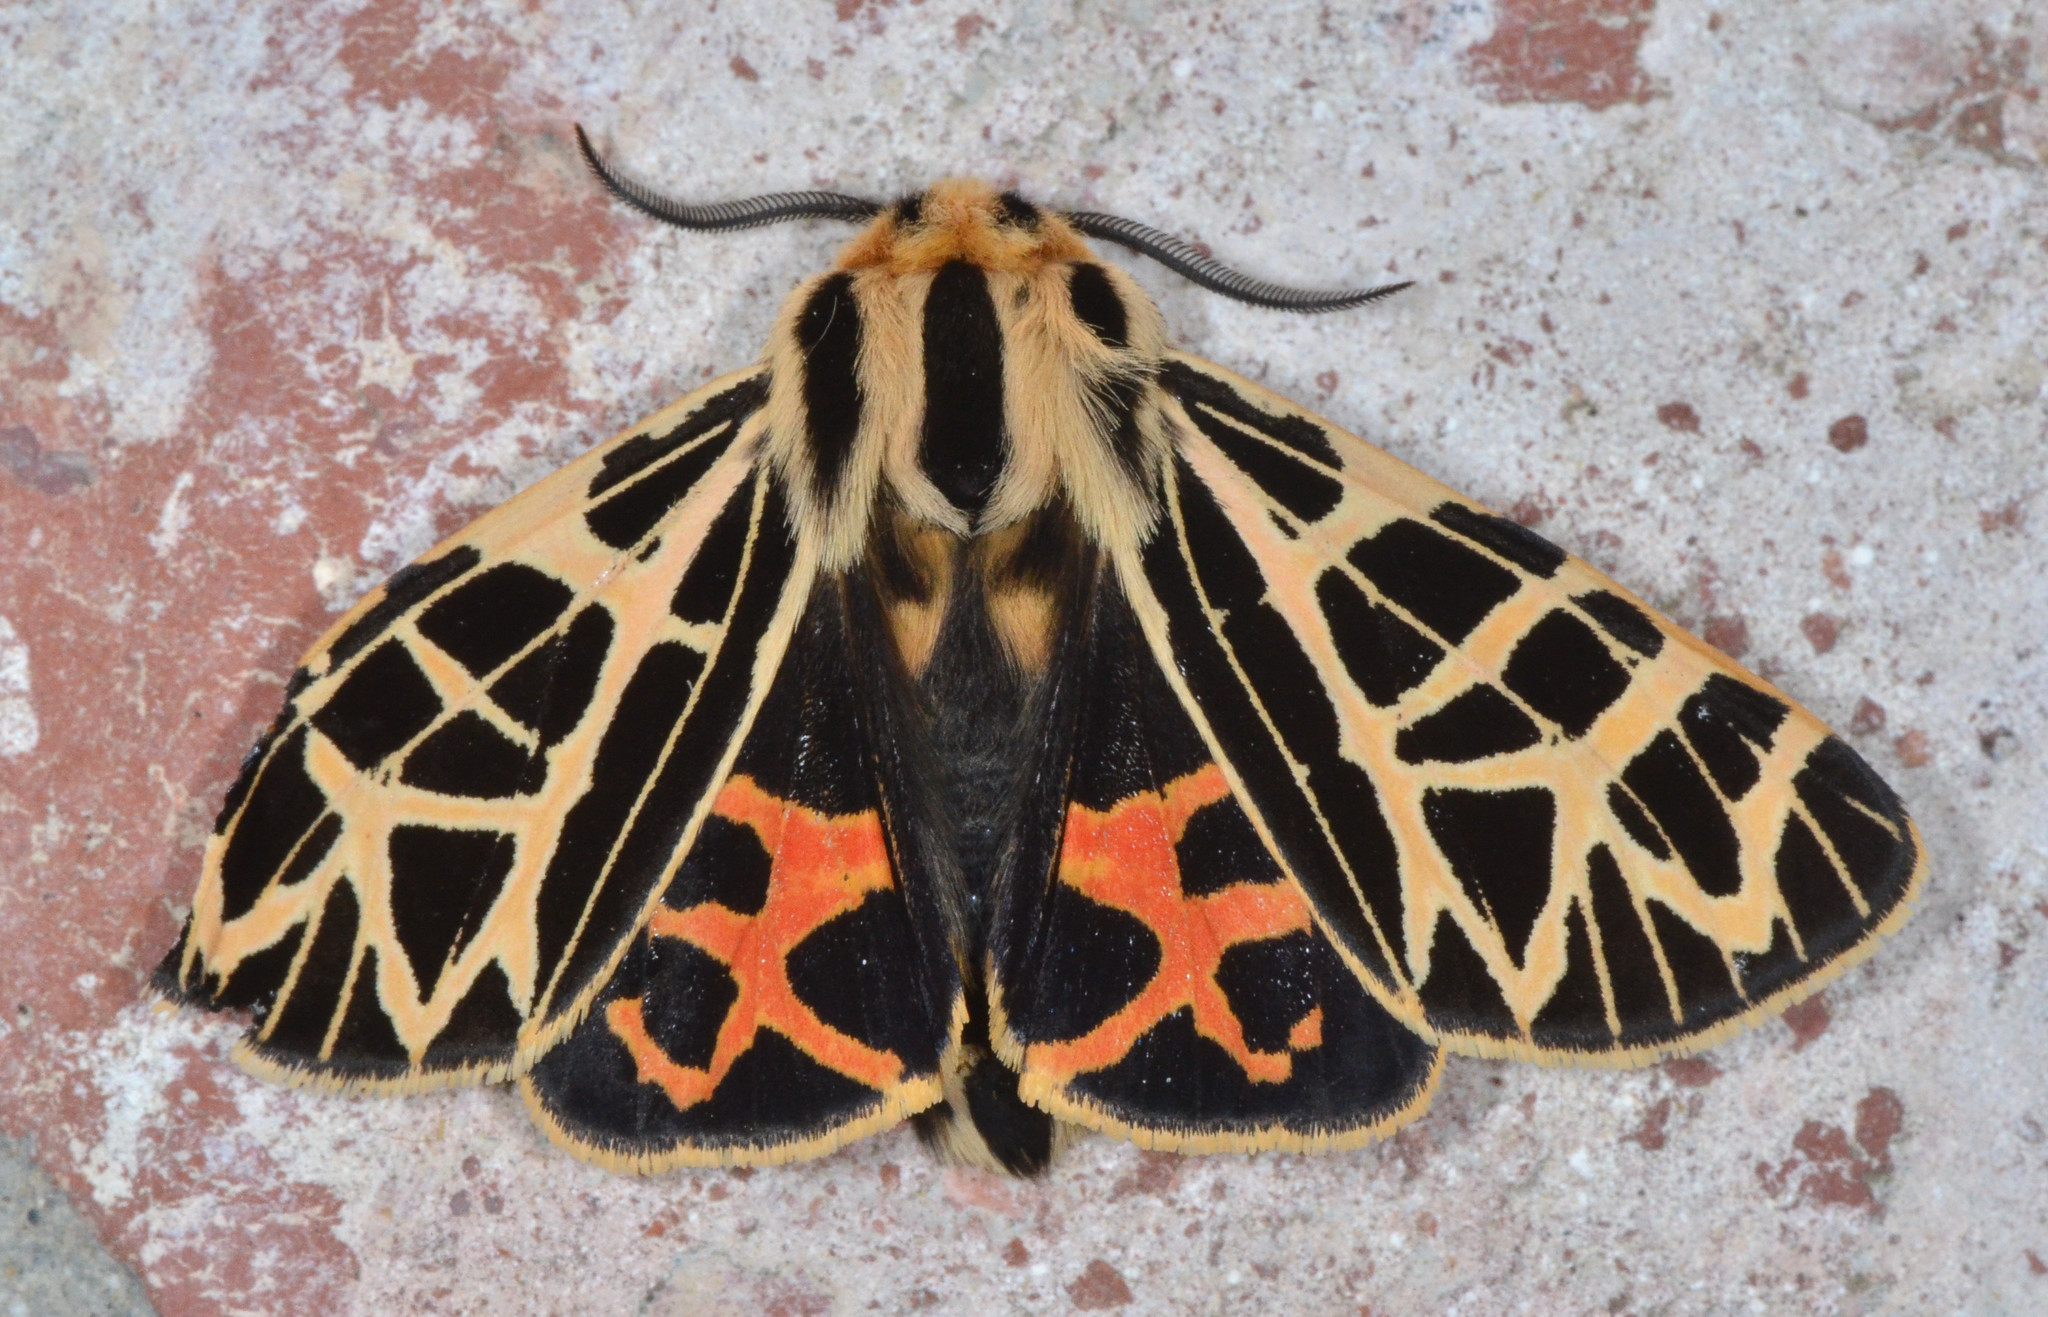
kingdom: Animalia
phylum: Arthropoda
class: Insecta
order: Lepidoptera
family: Erebidae
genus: Apantesis
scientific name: Apantesis
